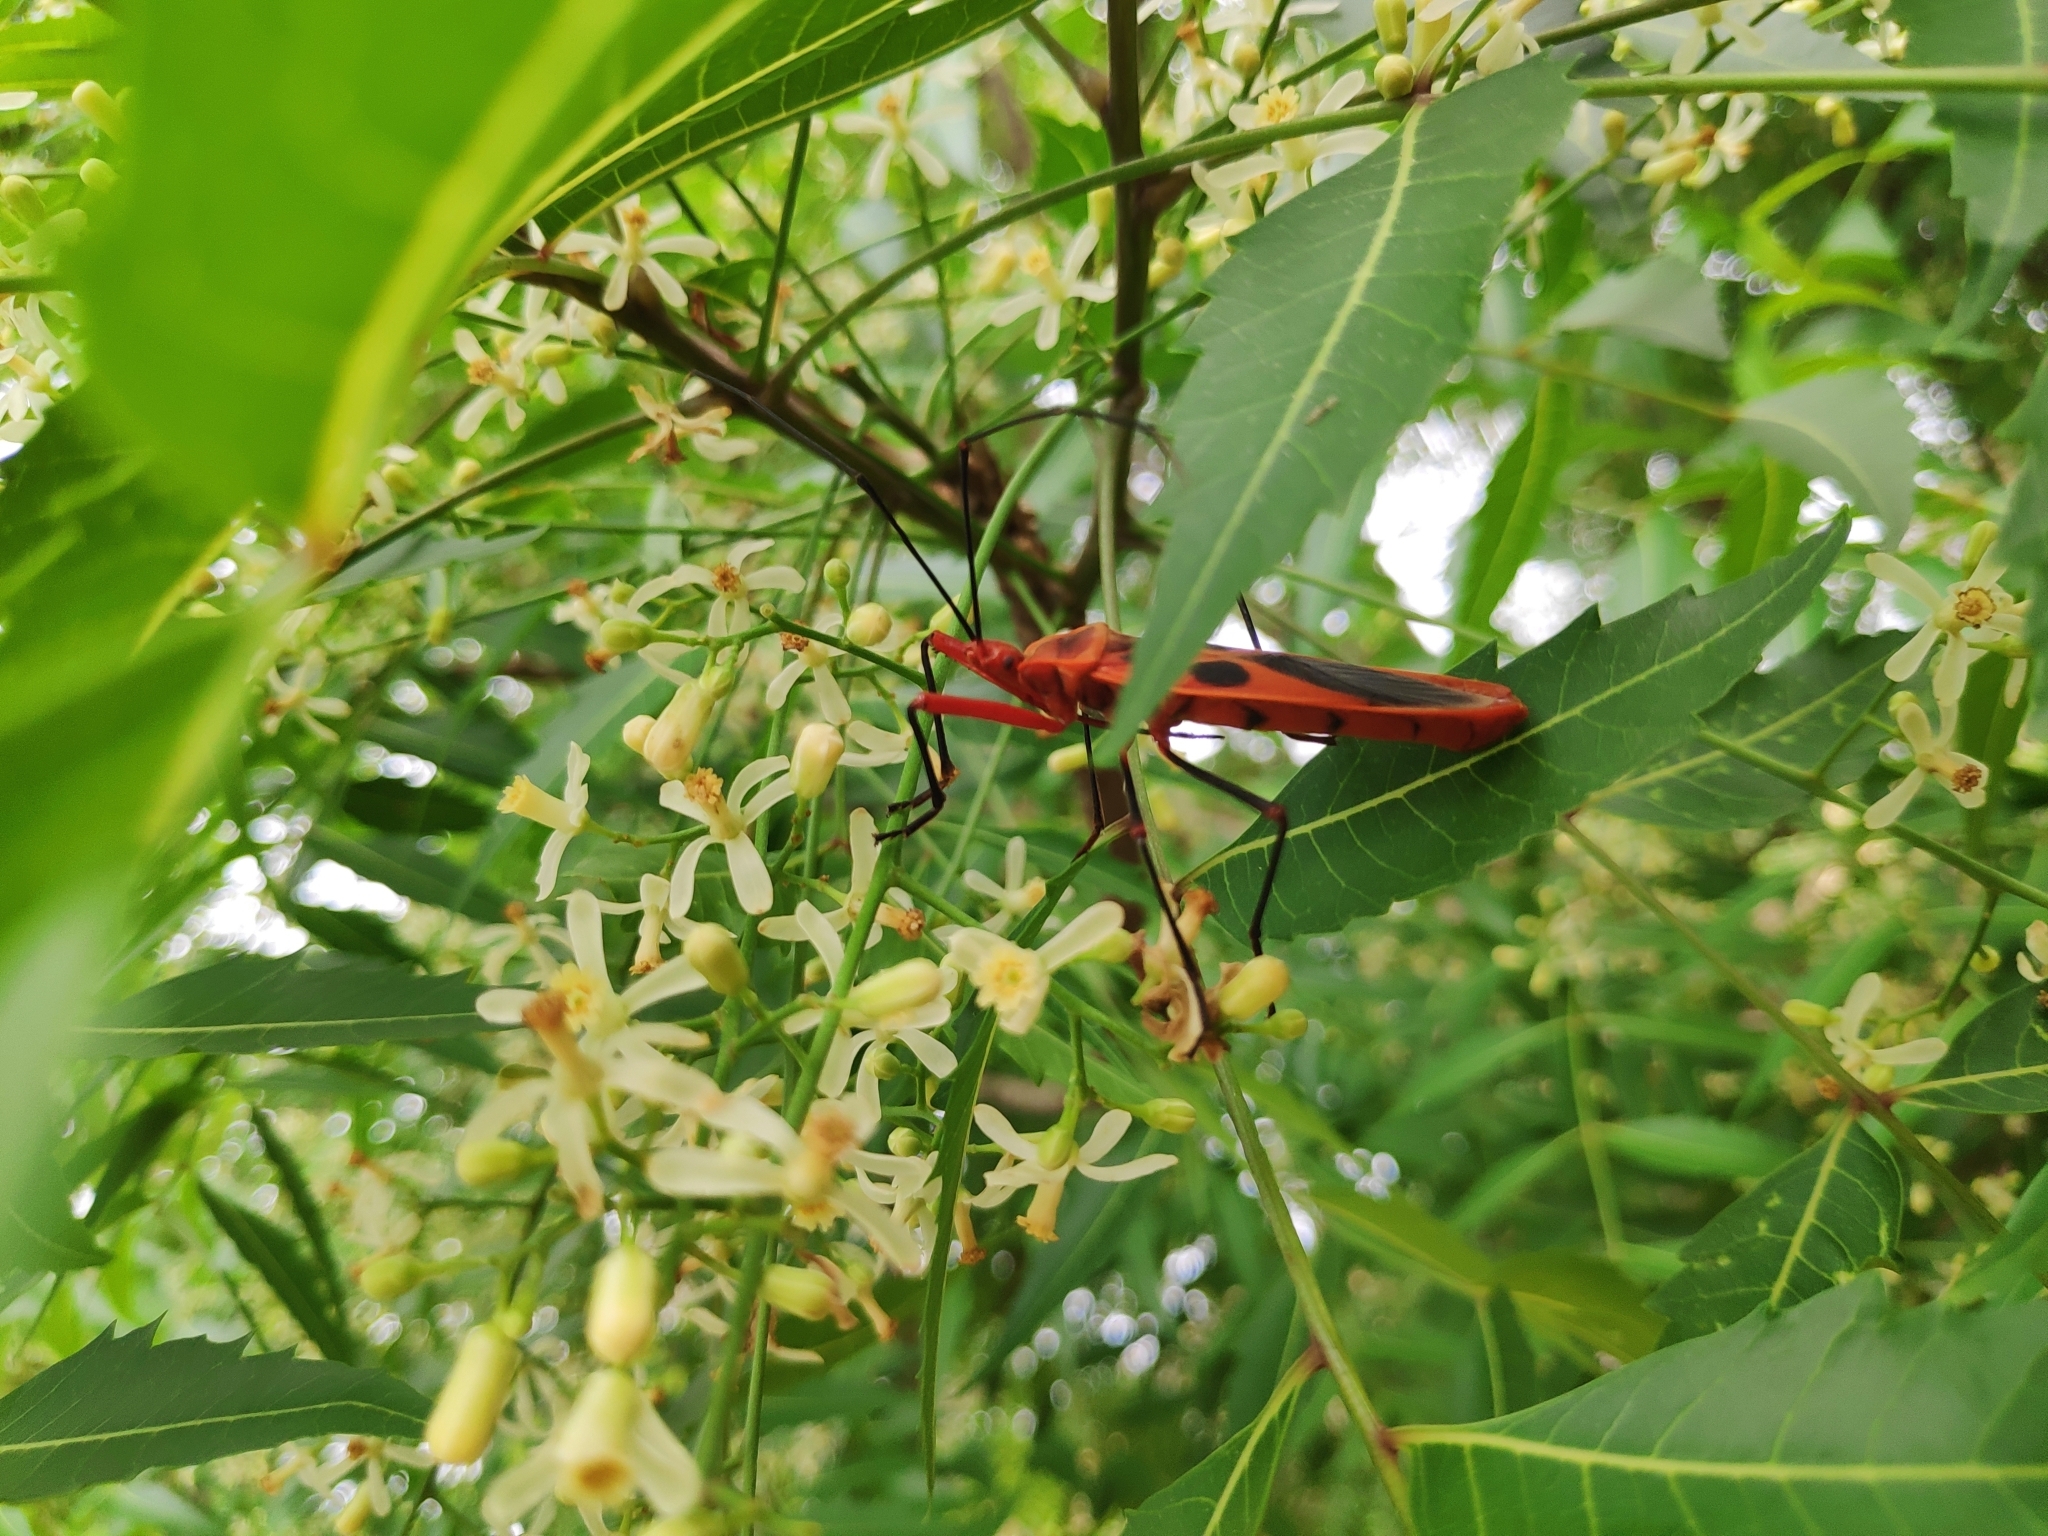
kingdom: Animalia
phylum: Arthropoda
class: Insecta
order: Hemiptera
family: Largidae
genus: Macrocheraia
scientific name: Macrocheraia grandis
